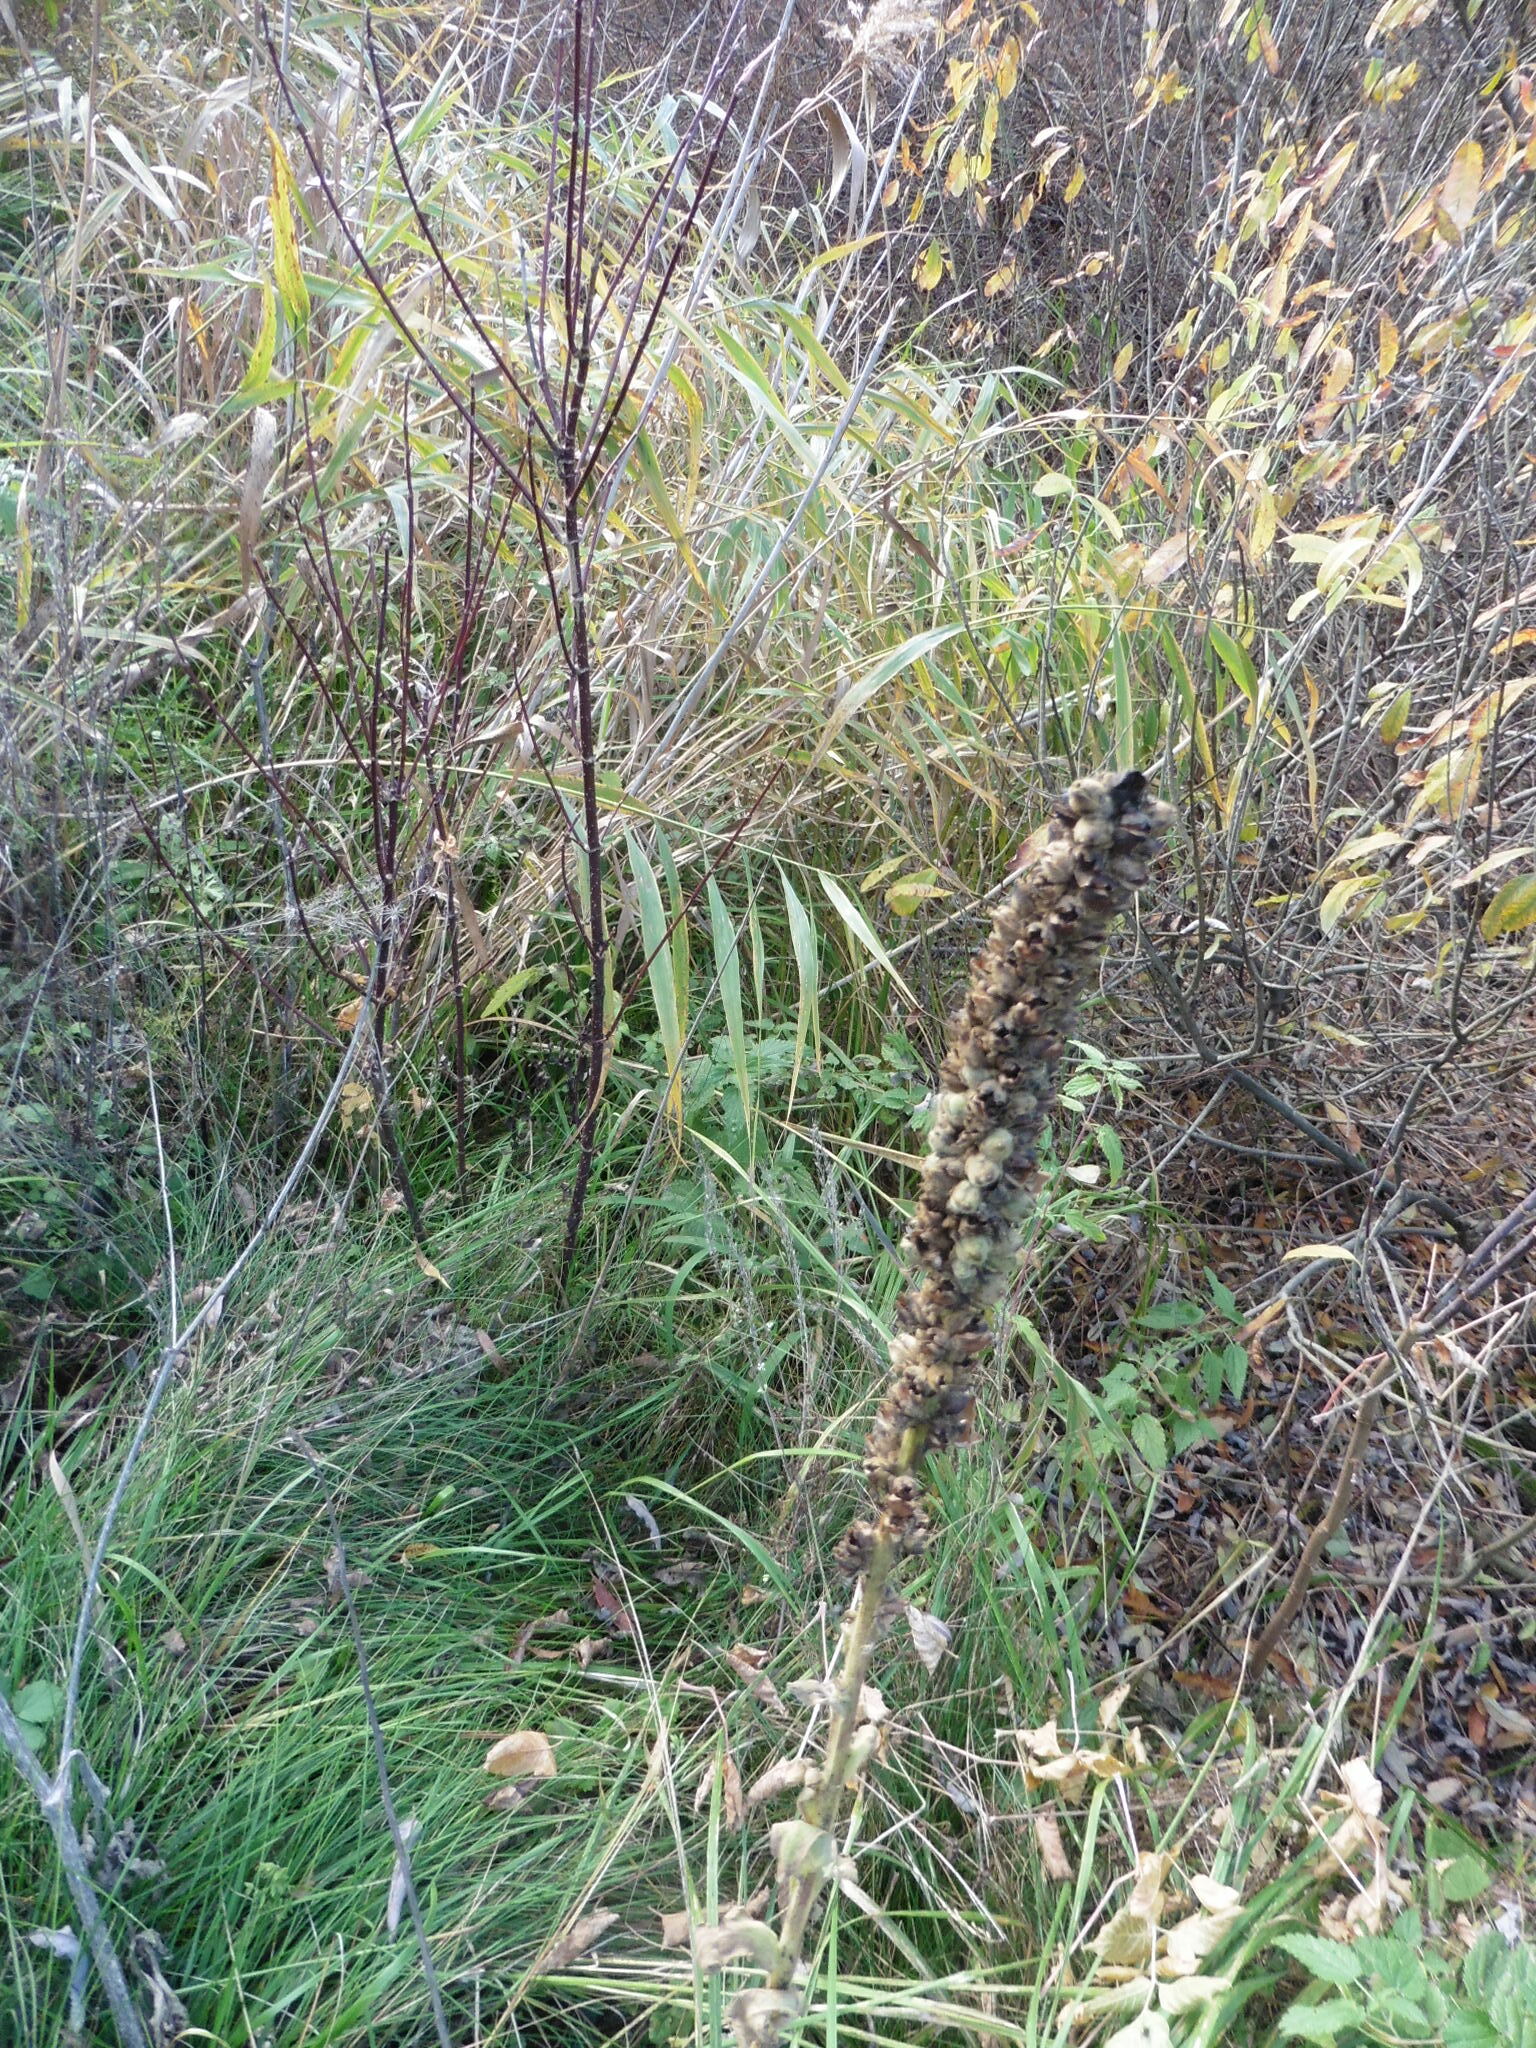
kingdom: Plantae
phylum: Tracheophyta
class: Magnoliopsida
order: Lamiales
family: Scrophulariaceae
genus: Verbascum
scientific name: Verbascum thapsus
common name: Common mullein
